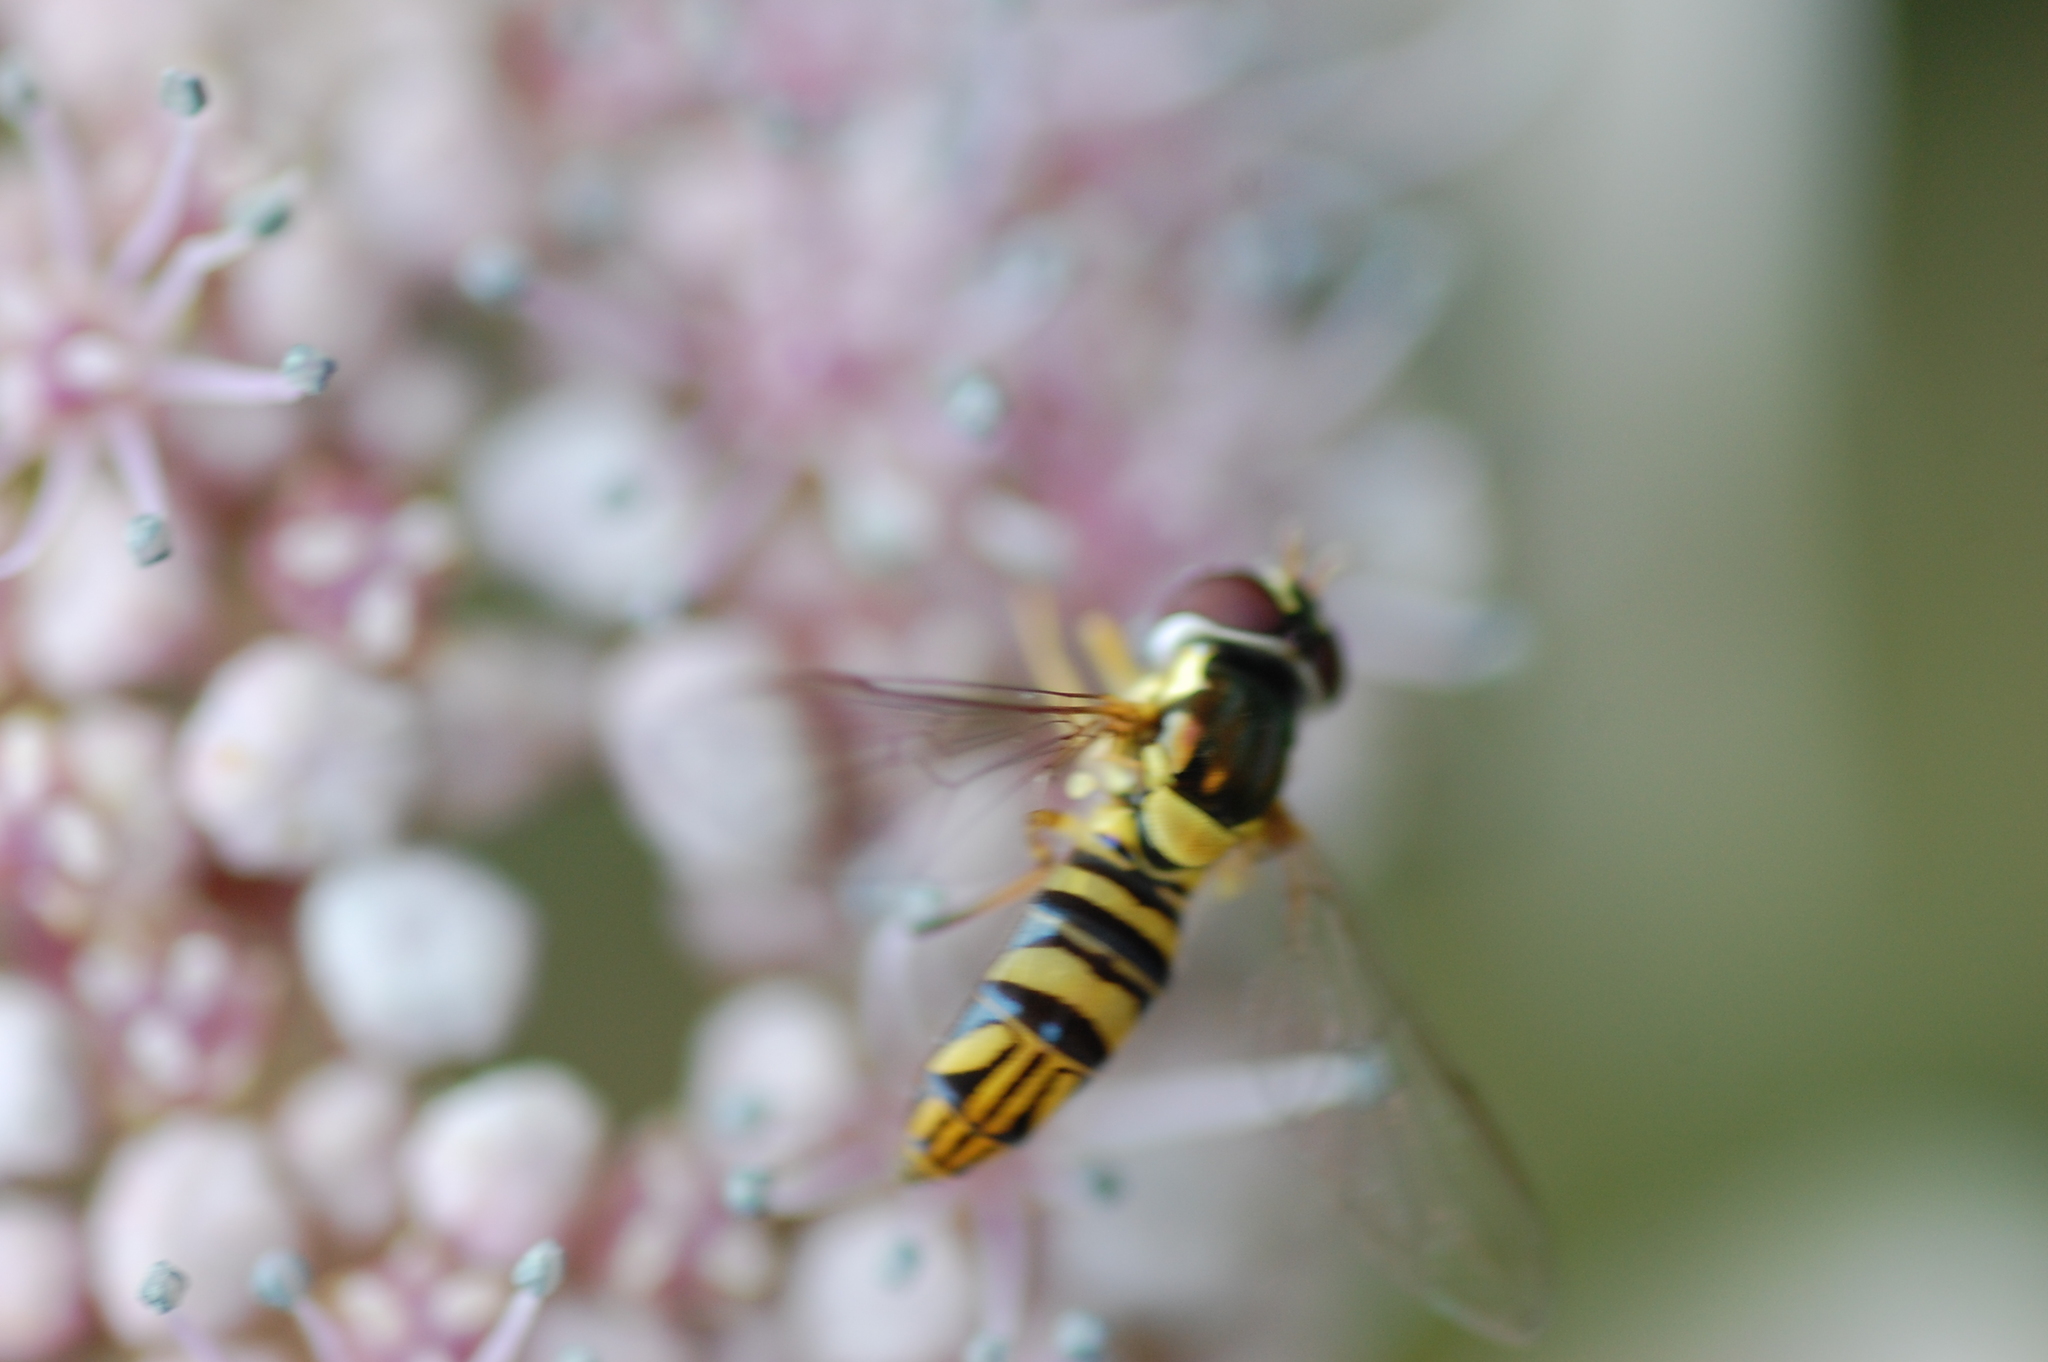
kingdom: Animalia
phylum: Arthropoda
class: Insecta
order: Diptera
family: Syrphidae
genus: Allograpta
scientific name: Allograpta obliqua
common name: Common oblique syrphid
